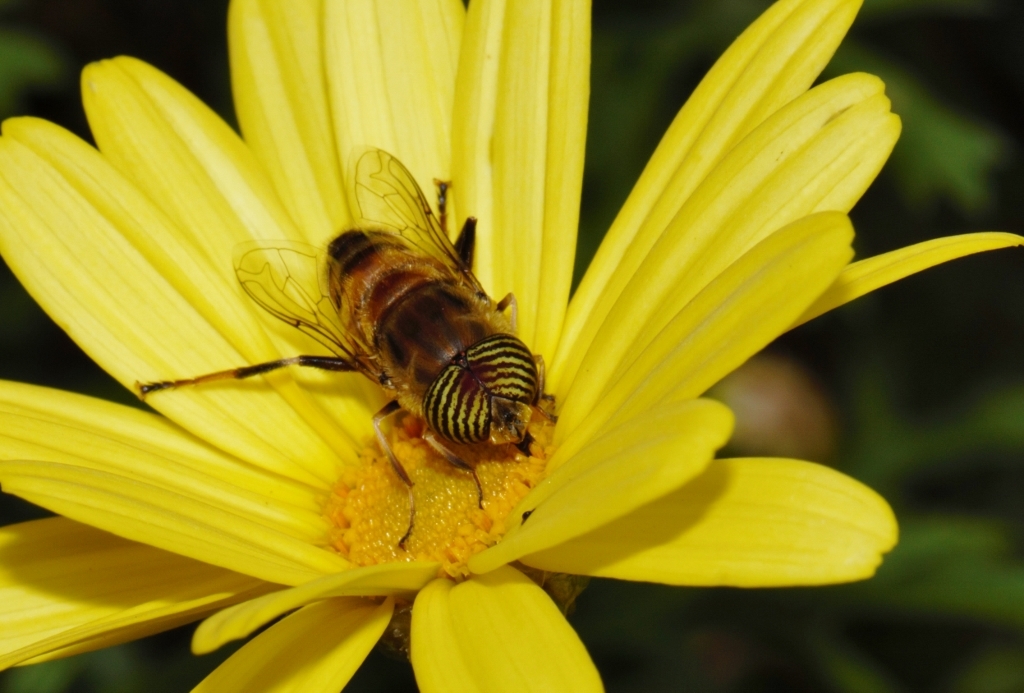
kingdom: Animalia
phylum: Arthropoda
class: Insecta
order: Diptera
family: Syrphidae
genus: Eristalinus
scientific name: Eristalinus taeniops
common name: Syrphid fly
